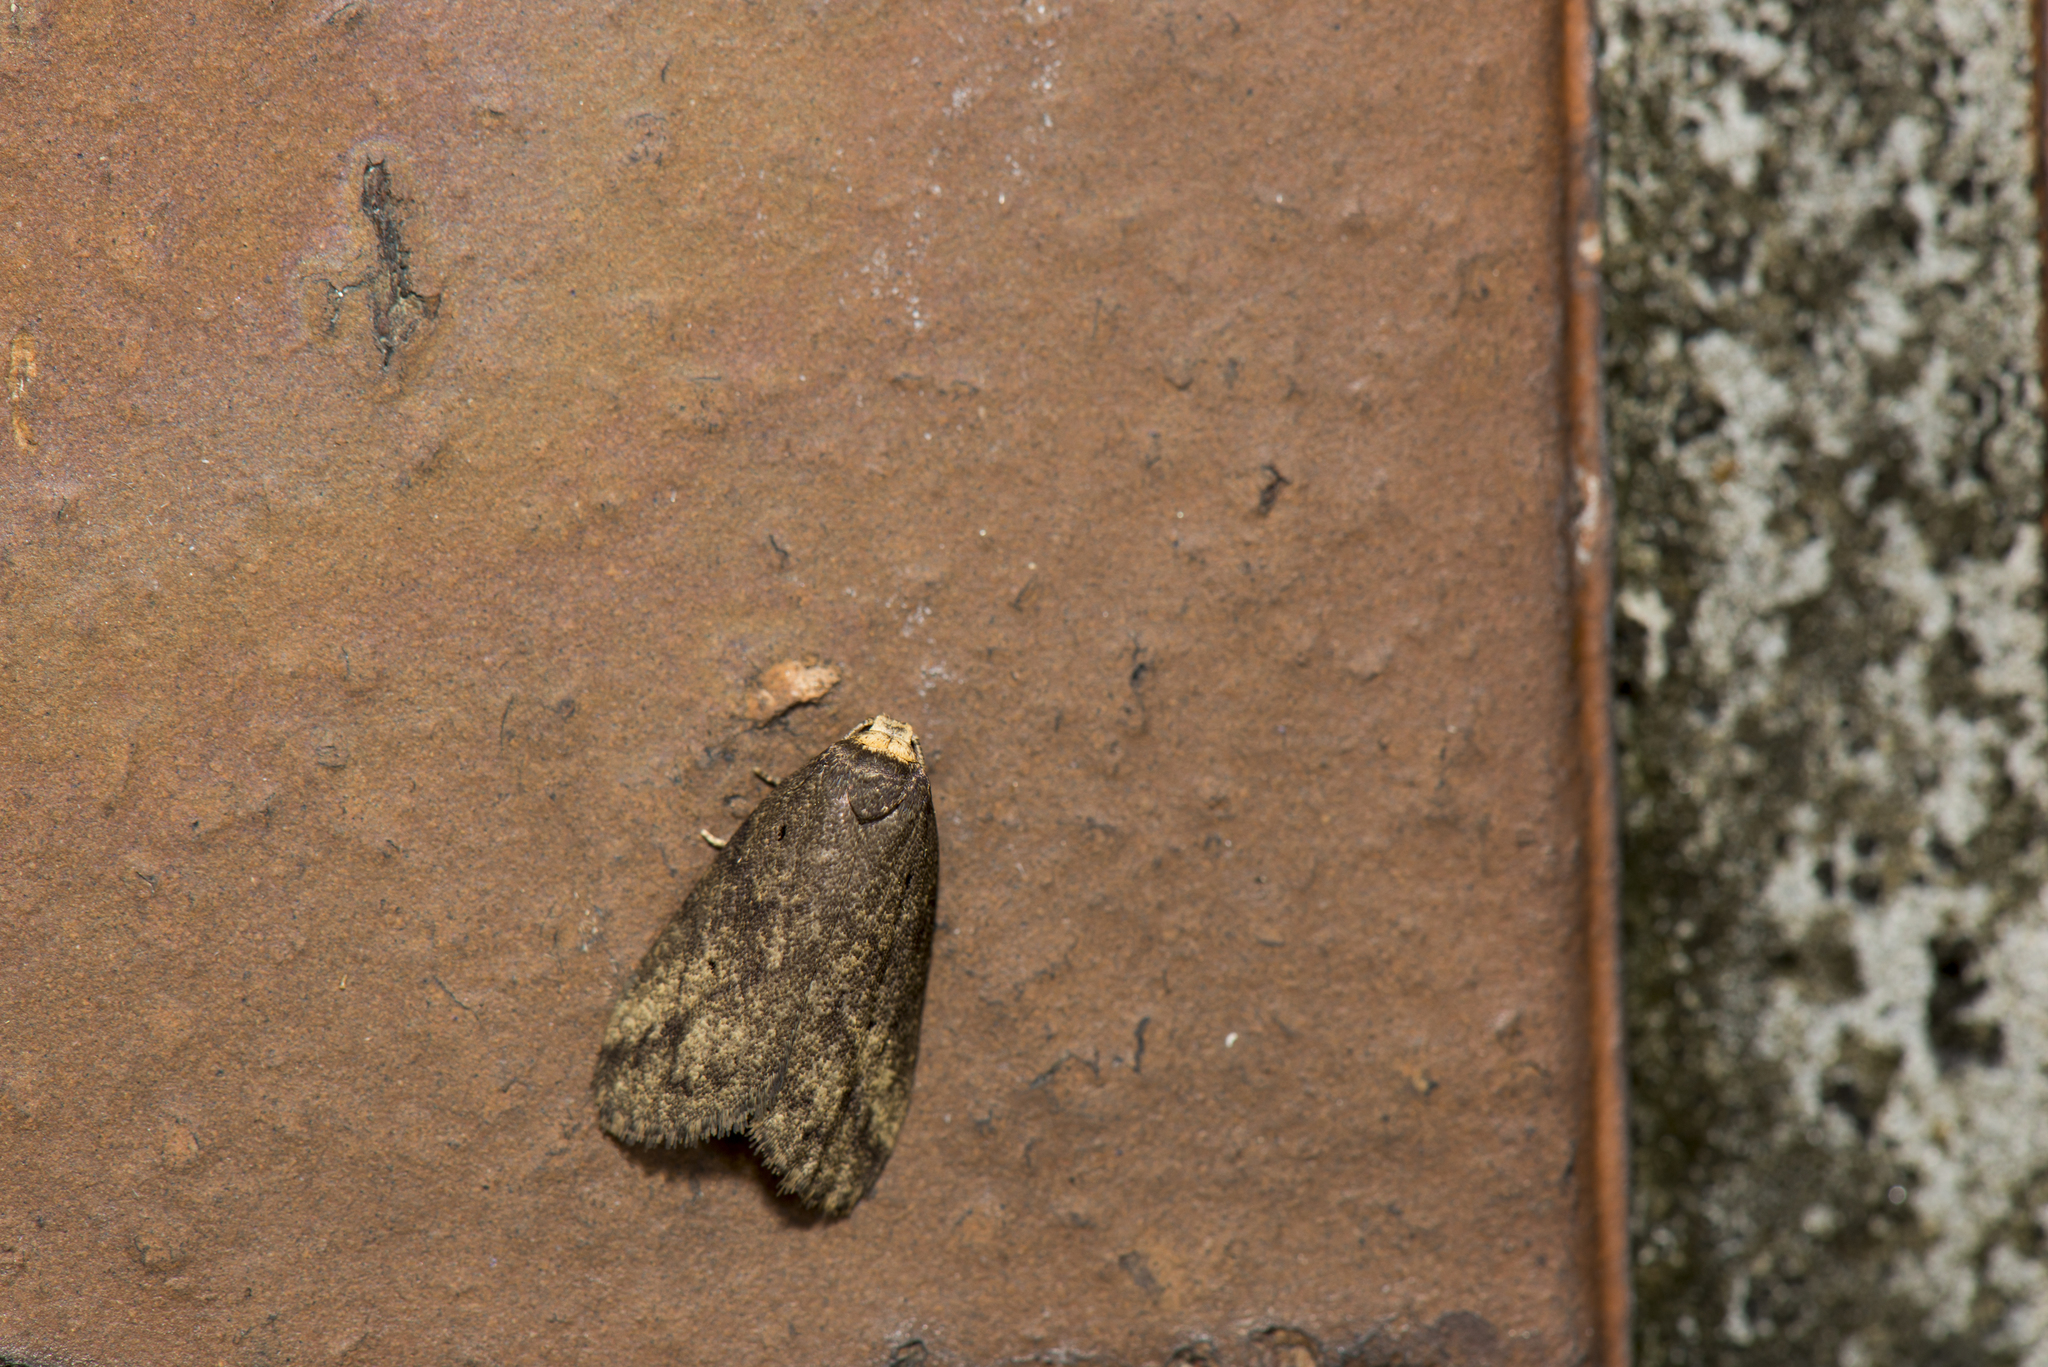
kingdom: Animalia
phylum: Arthropoda
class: Insecta
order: Lepidoptera
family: Erebidae
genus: Eugoa
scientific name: Eugoa brunnea
